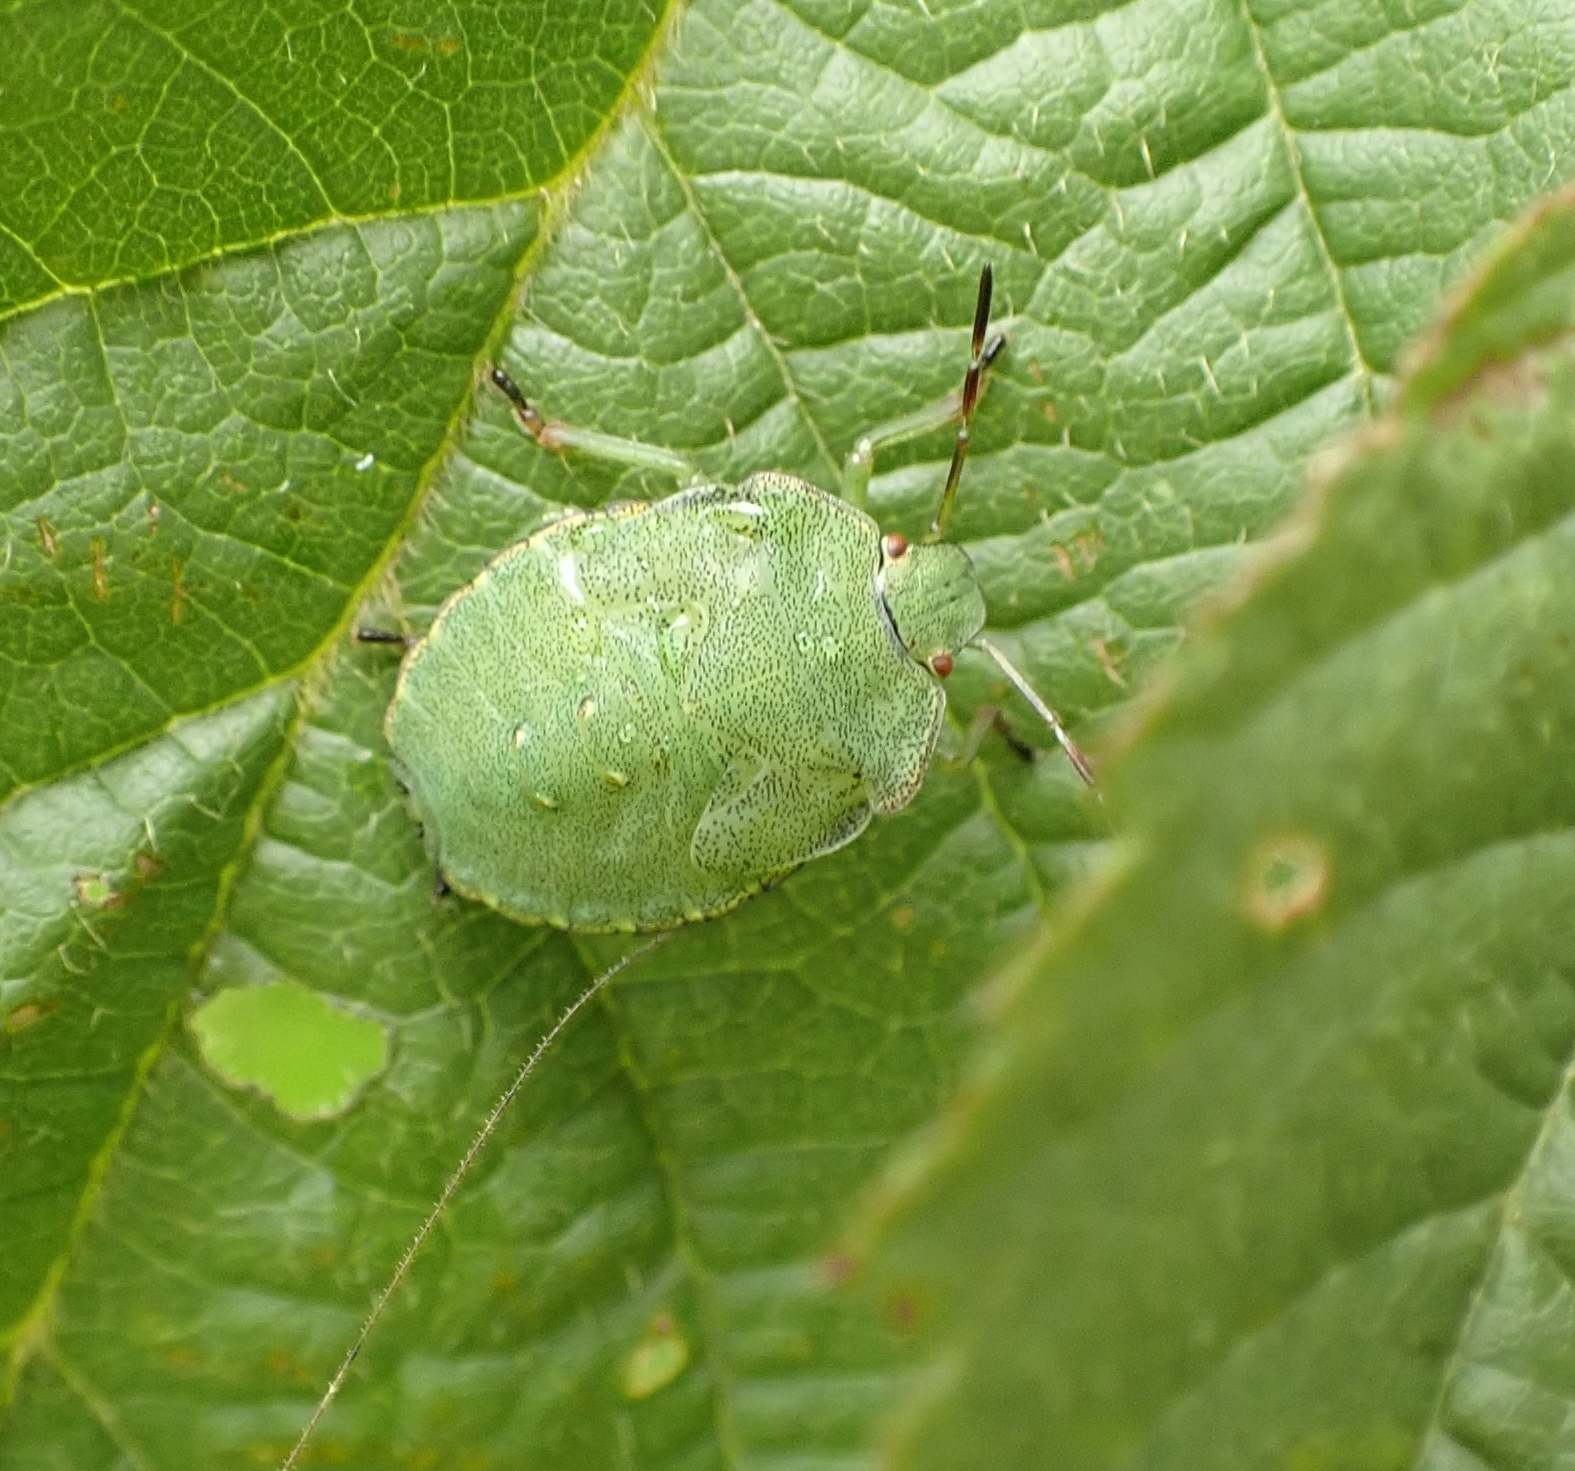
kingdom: Animalia
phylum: Arthropoda
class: Insecta
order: Hemiptera
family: Pentatomidae
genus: Palomena
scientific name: Palomena prasina
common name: Green shieldbug
